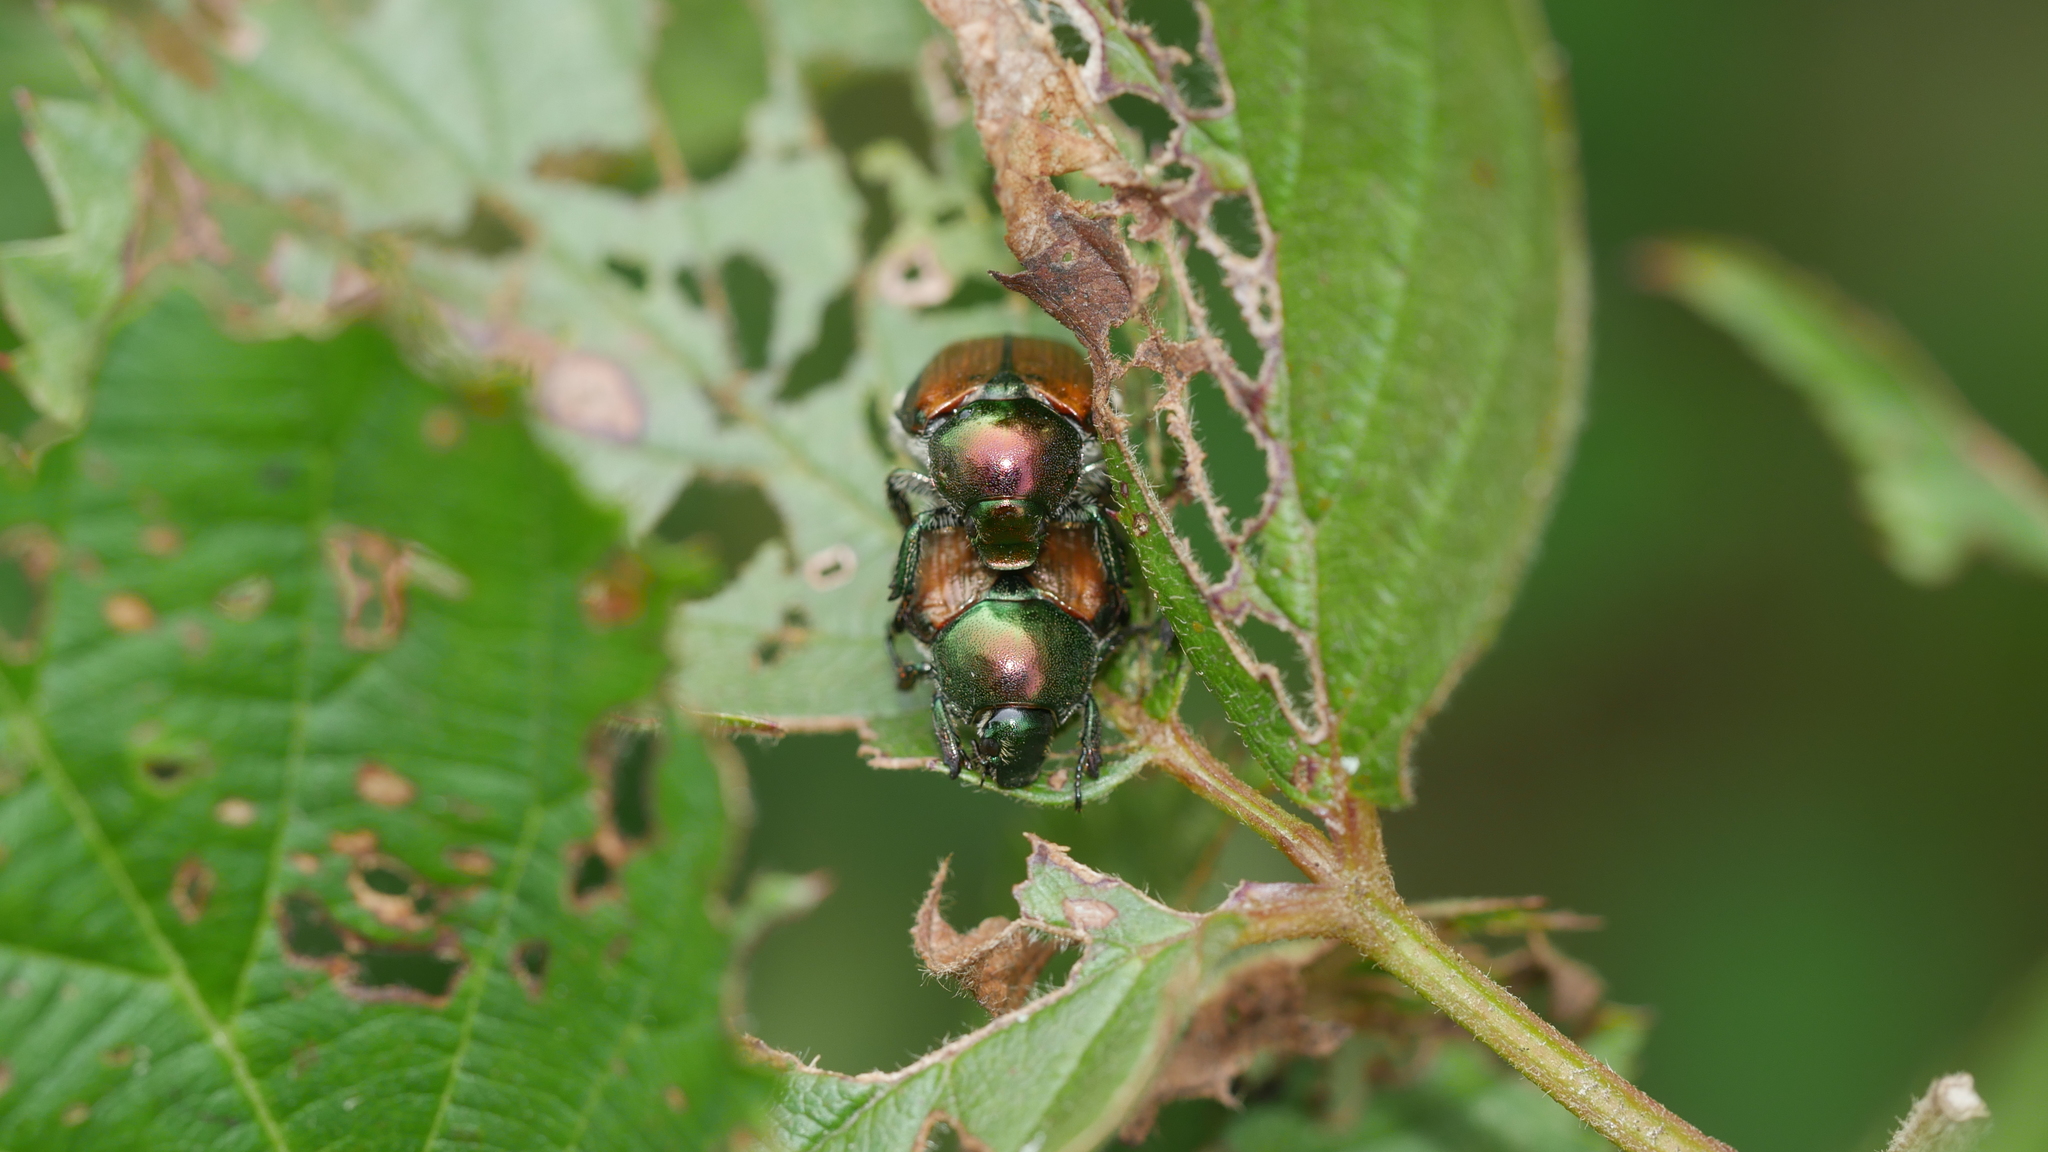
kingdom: Animalia
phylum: Arthropoda
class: Insecta
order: Coleoptera
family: Scarabaeidae
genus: Popillia
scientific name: Popillia japonica
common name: Japanese beetle
